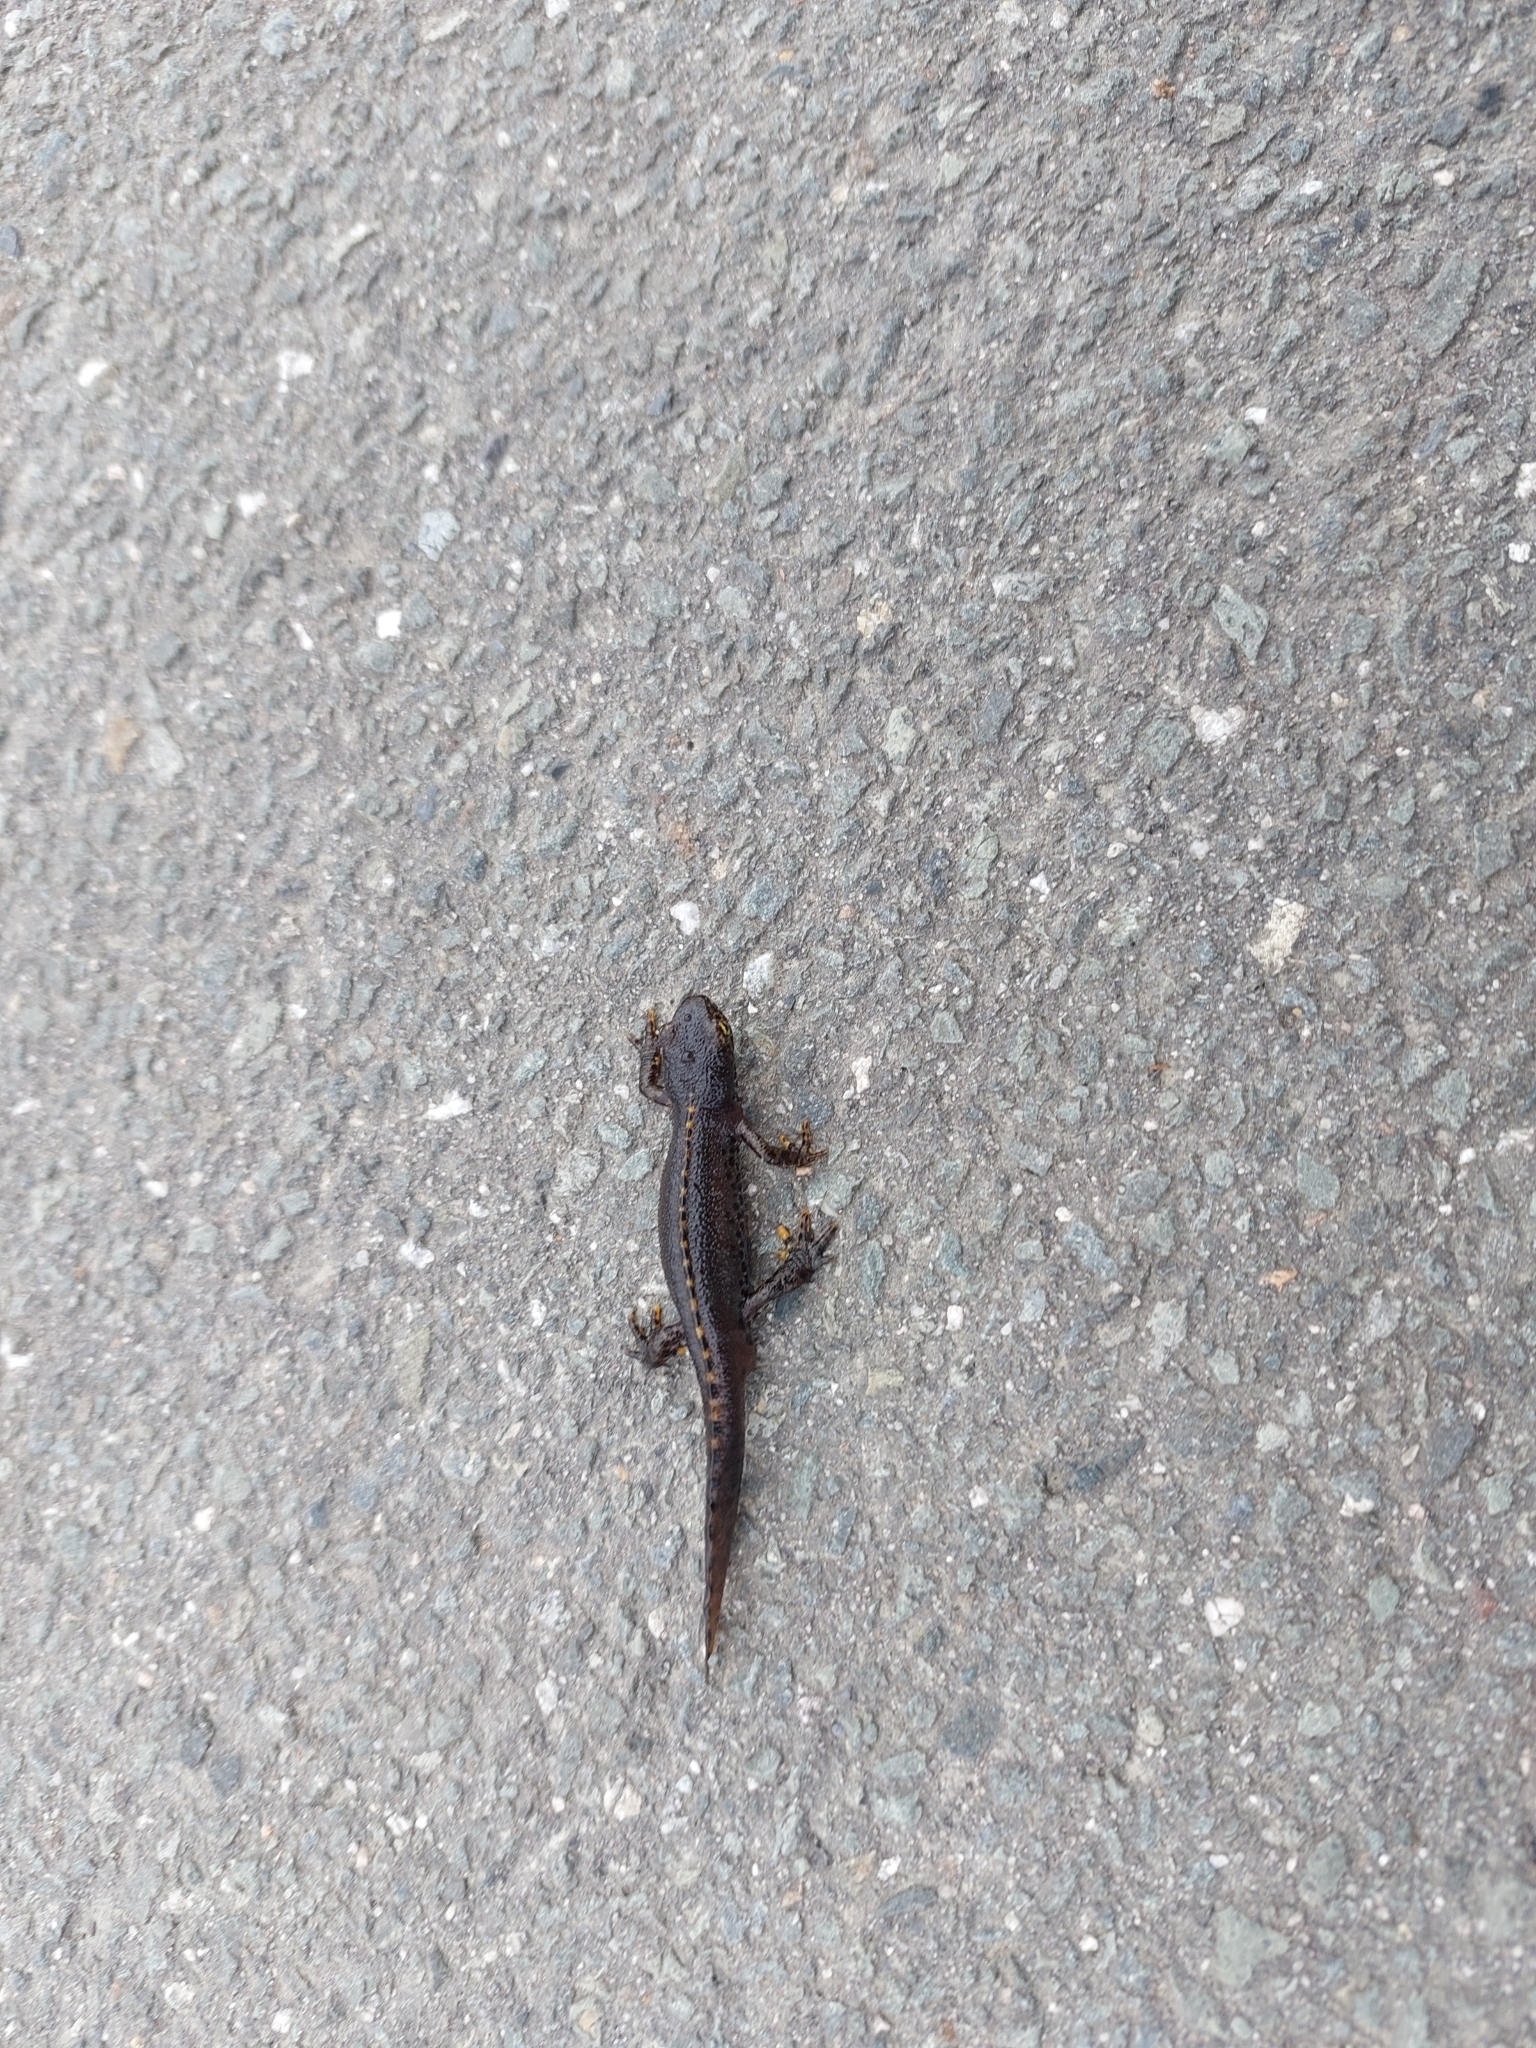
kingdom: Animalia
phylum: Chordata
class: Amphibia
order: Caudata
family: Salamandridae
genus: Ichthyosaura
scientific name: Ichthyosaura alpestris
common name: Alpine newt
